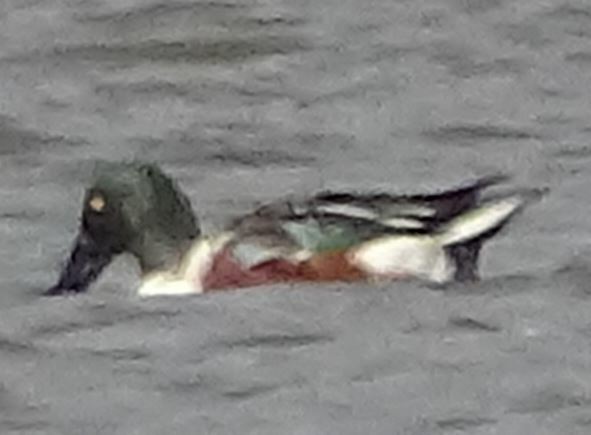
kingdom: Animalia
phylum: Chordata
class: Aves
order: Anseriformes
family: Anatidae
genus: Spatula
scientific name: Spatula clypeata
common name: Northern shoveler
